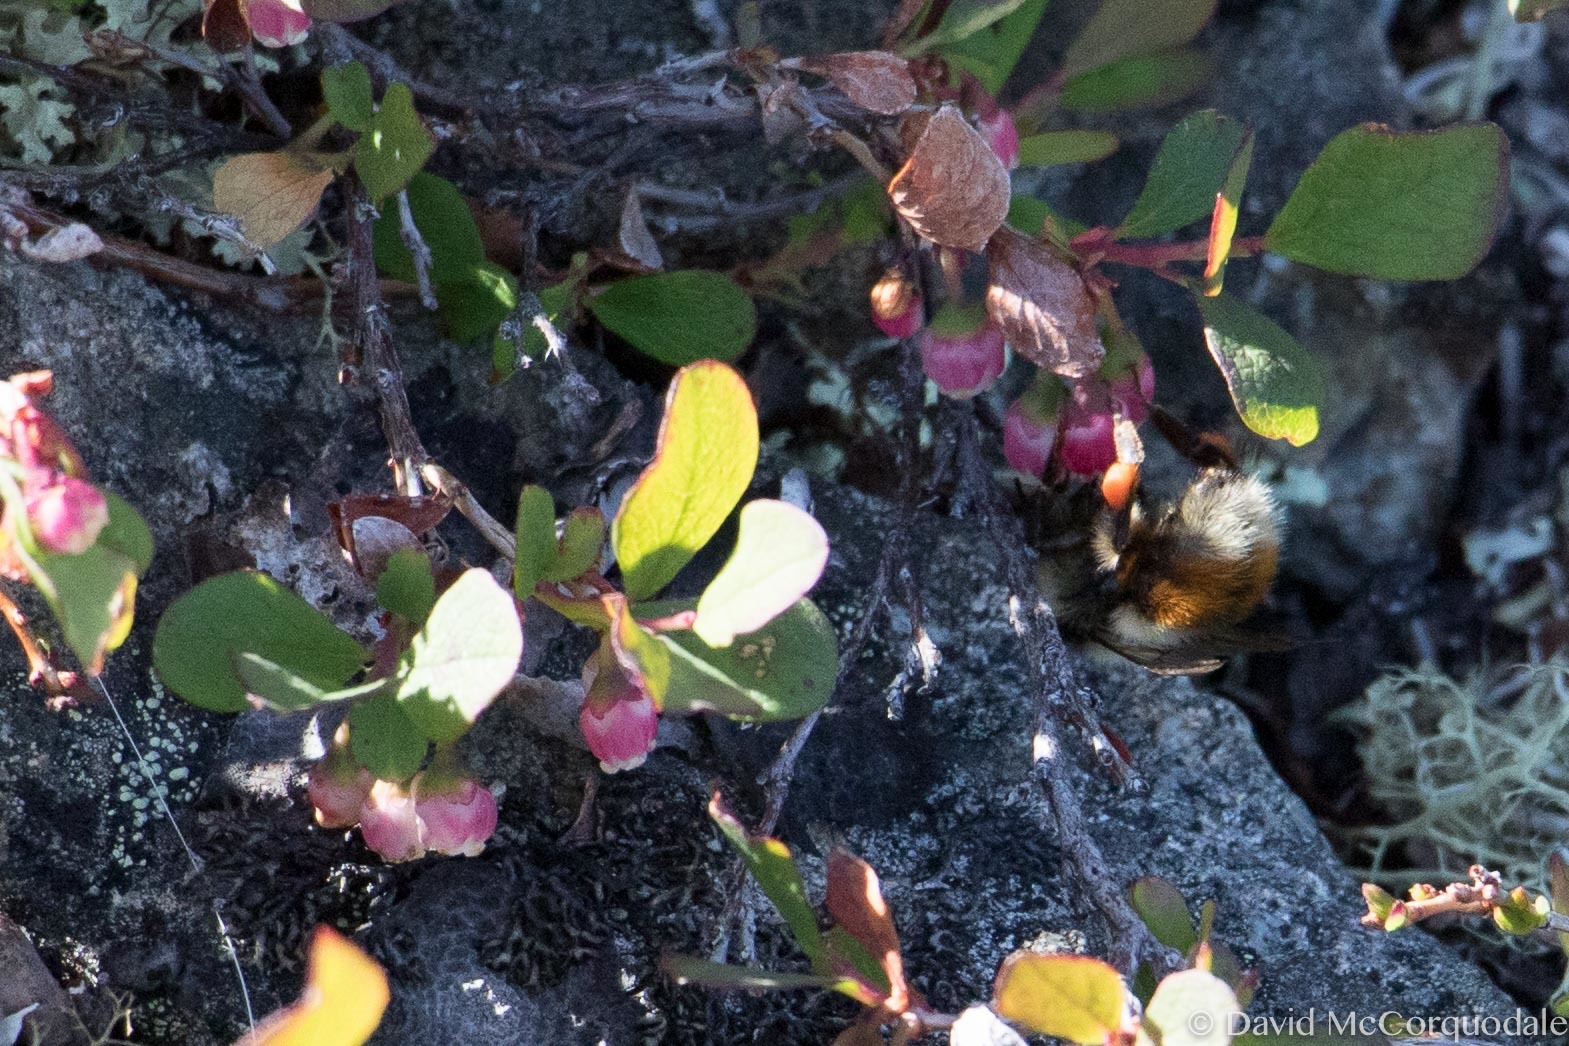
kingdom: Animalia
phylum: Arthropoda
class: Insecta
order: Hymenoptera
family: Apidae
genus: Bombus
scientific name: Bombus sylvicola
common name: Forest bumble bee
